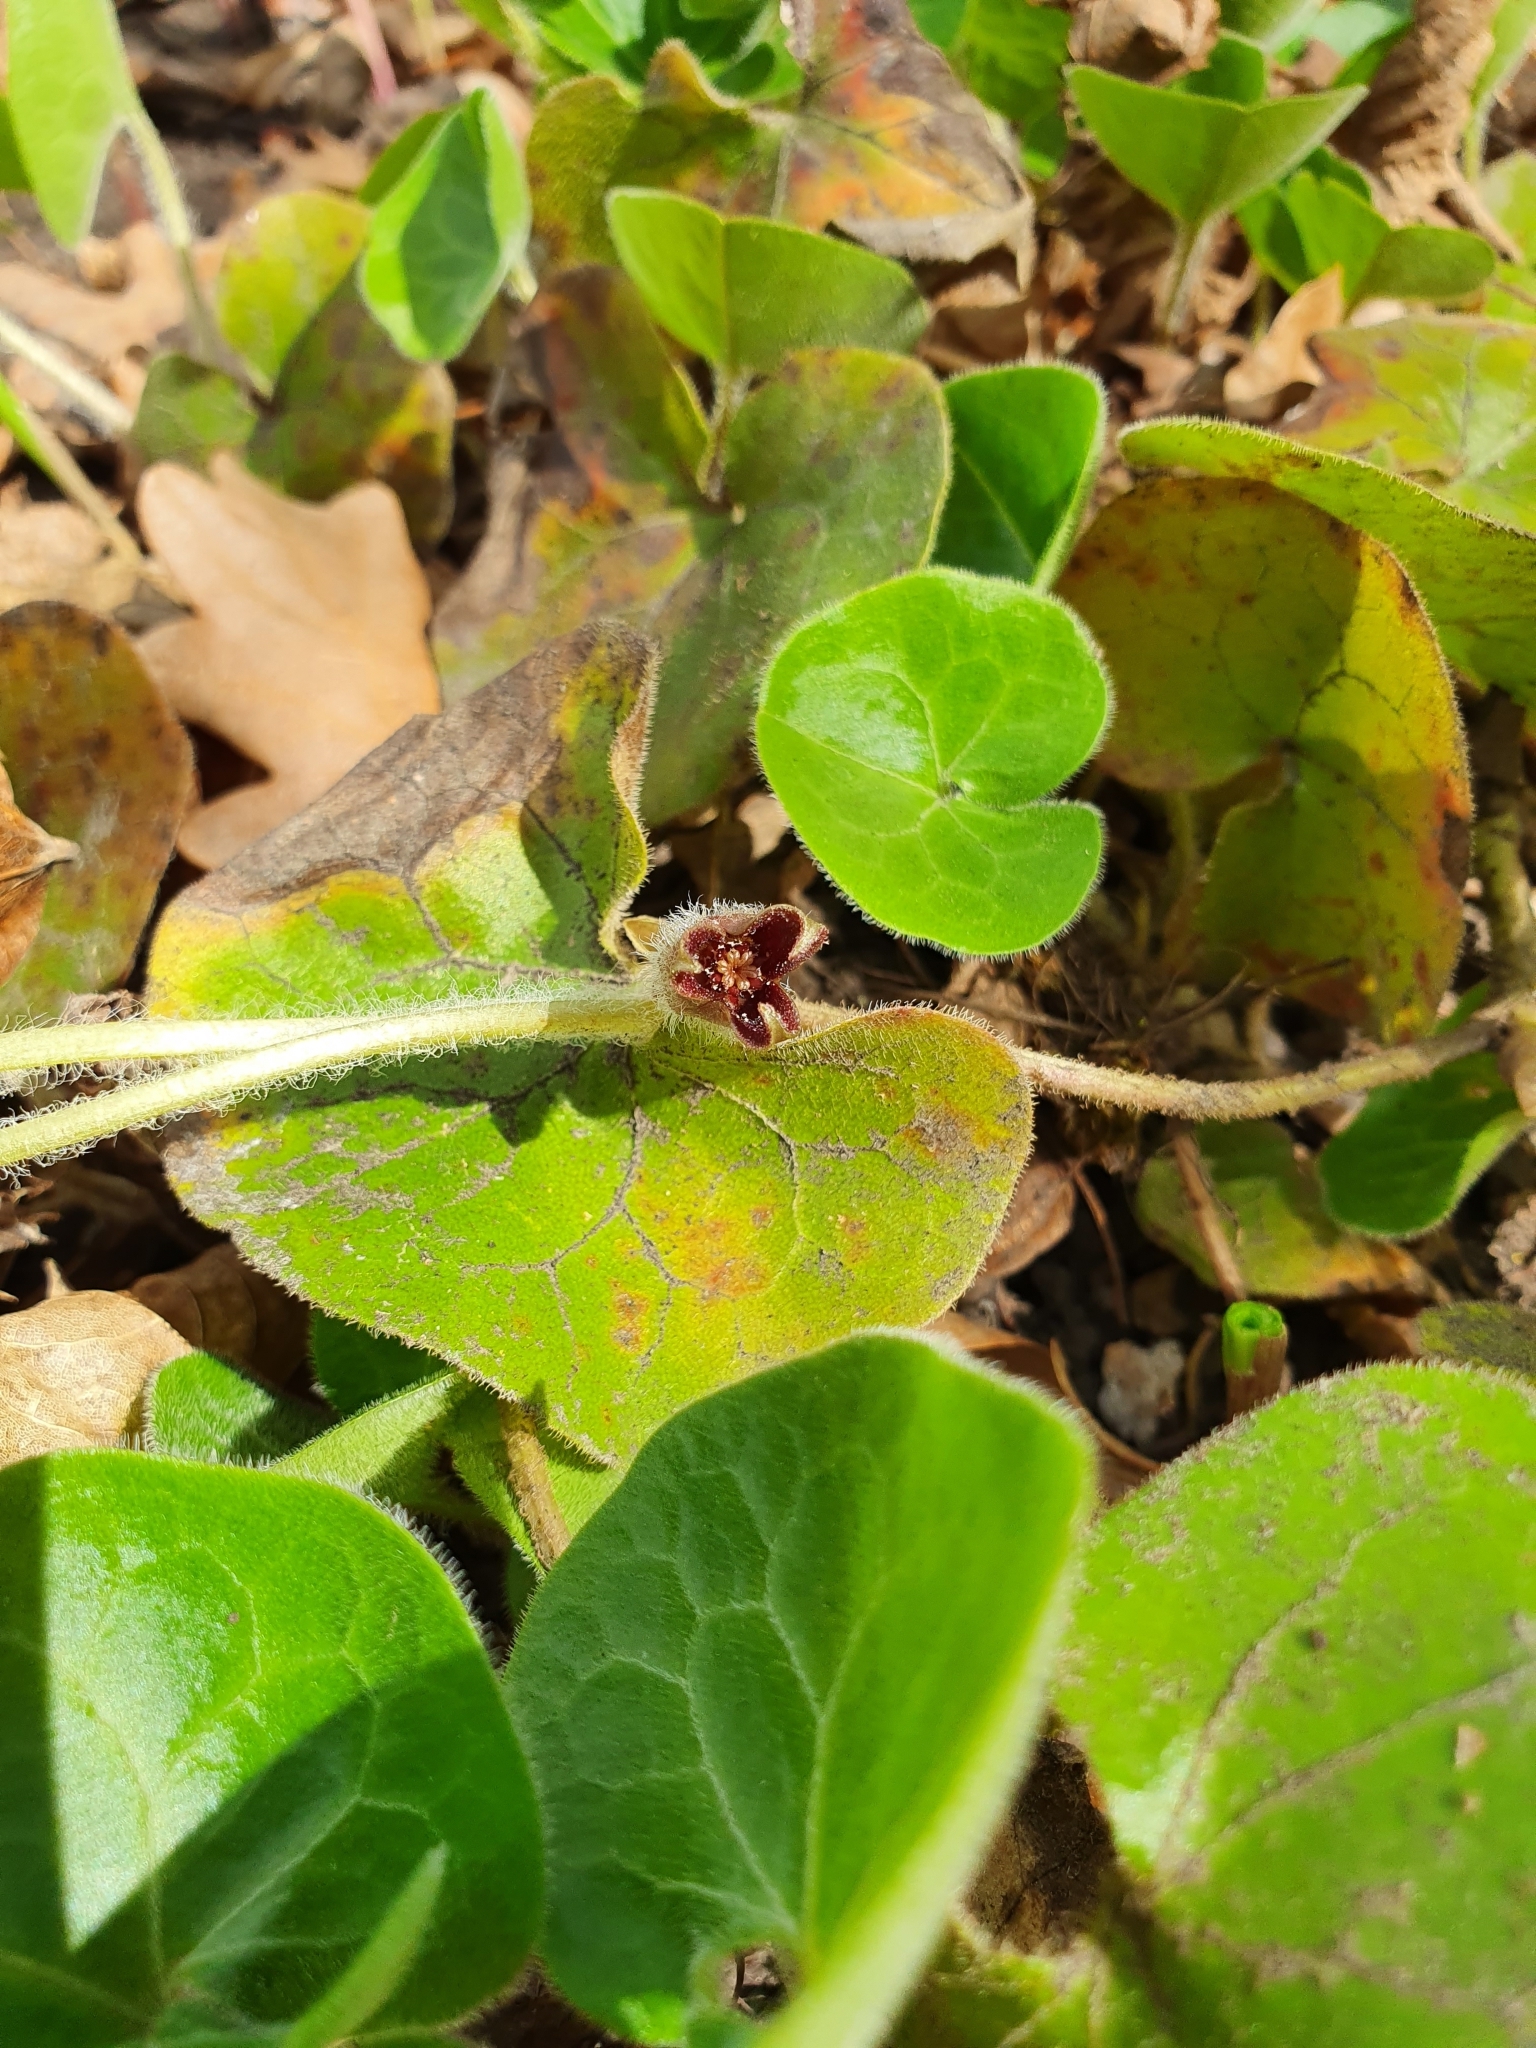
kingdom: Plantae
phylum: Tracheophyta
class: Magnoliopsida
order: Piperales
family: Aristolochiaceae
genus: Asarum
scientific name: Asarum europaeum
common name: Asarabacca
